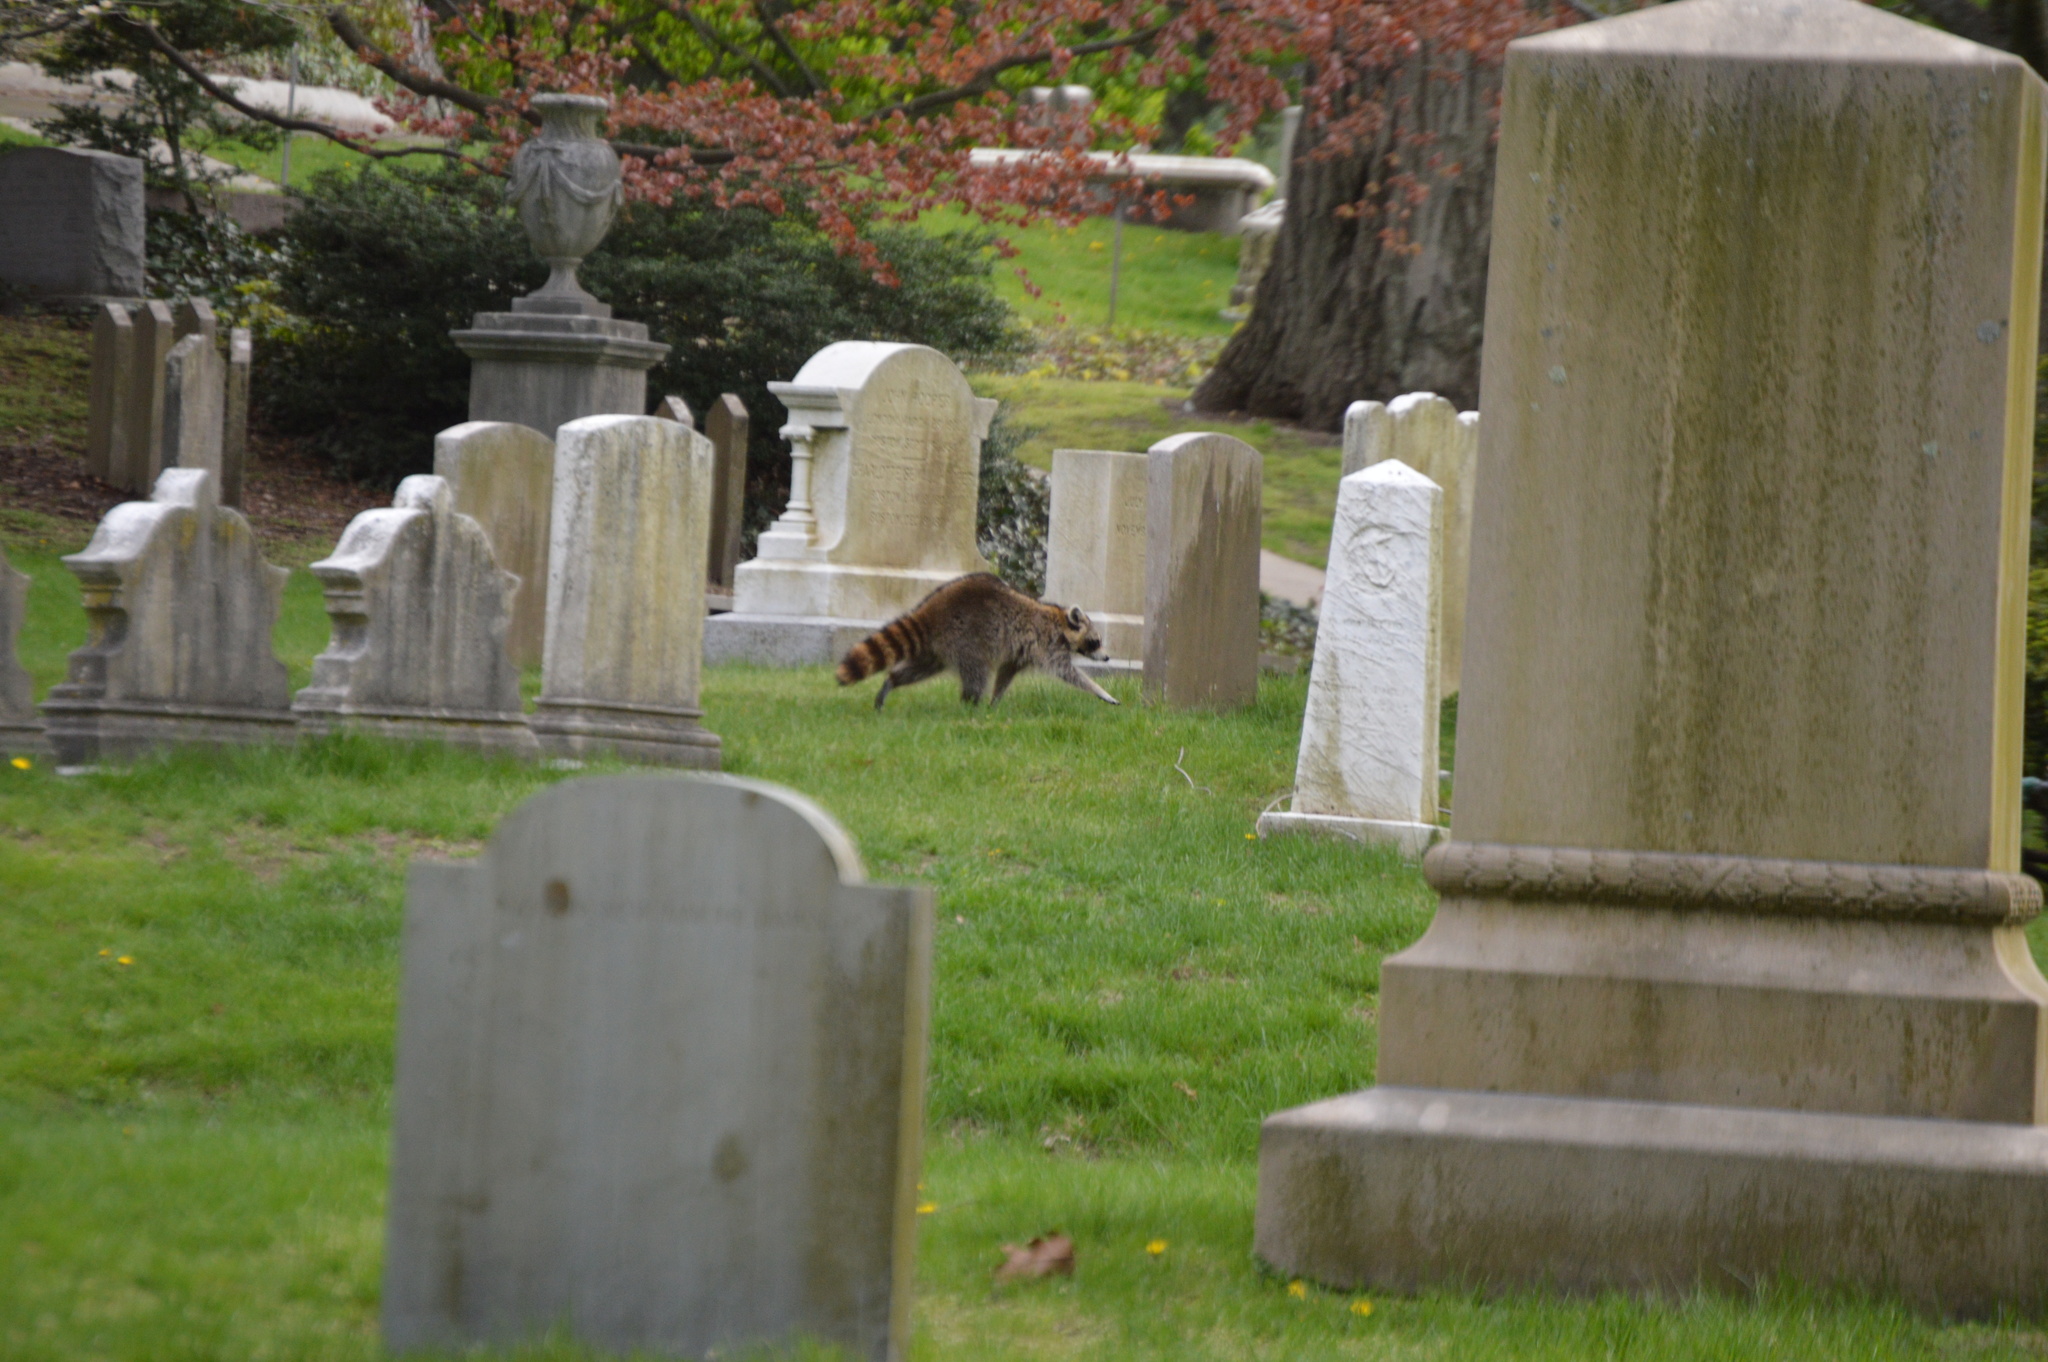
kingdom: Animalia
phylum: Chordata
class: Mammalia
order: Carnivora
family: Procyonidae
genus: Procyon
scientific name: Procyon lotor
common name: Raccoon
